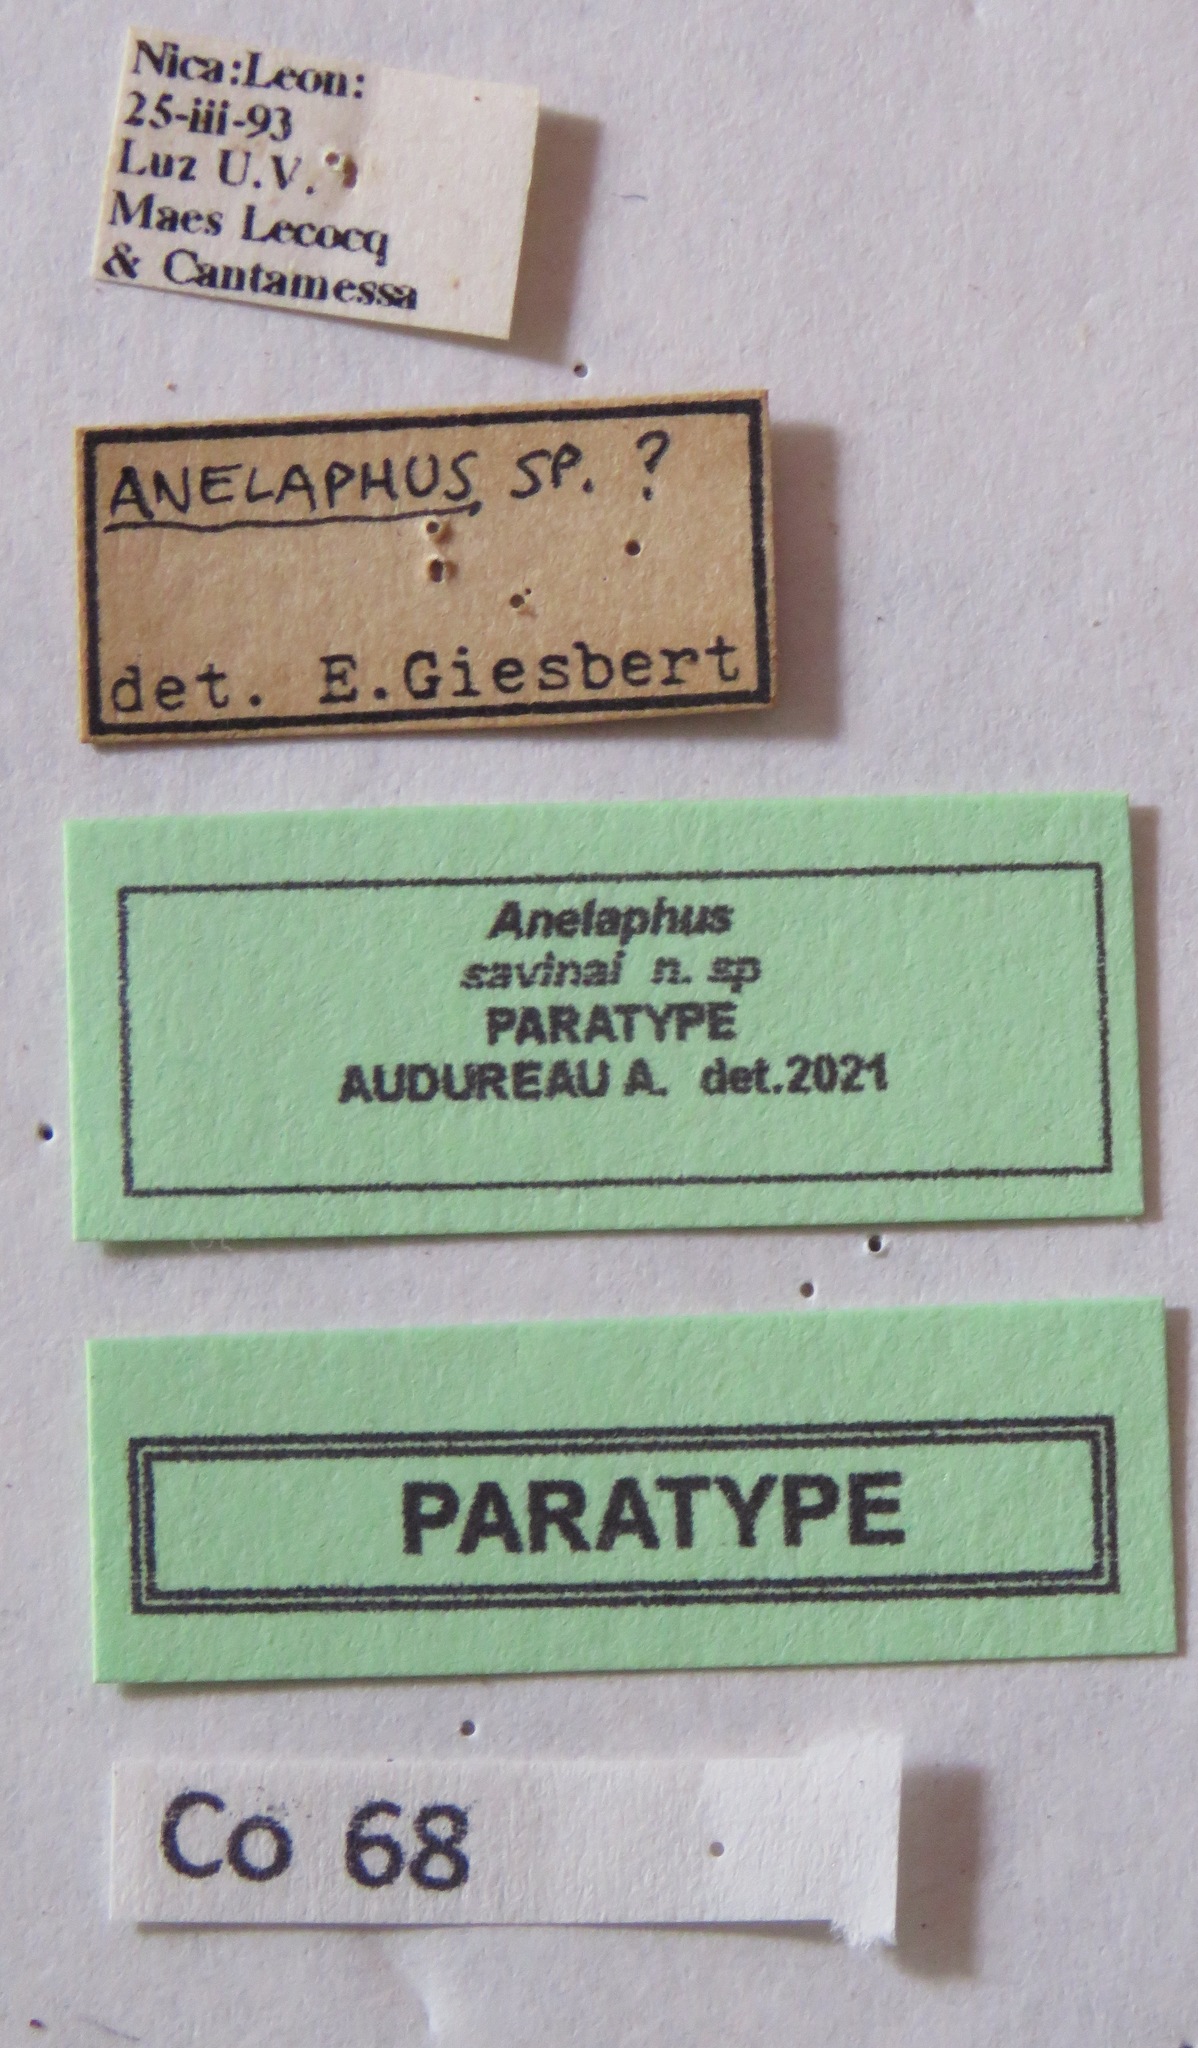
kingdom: Animalia
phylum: Arthropoda
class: Insecta
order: Coleoptera
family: Cerambycidae
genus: Anelaphus
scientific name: Anelaphus savinai
